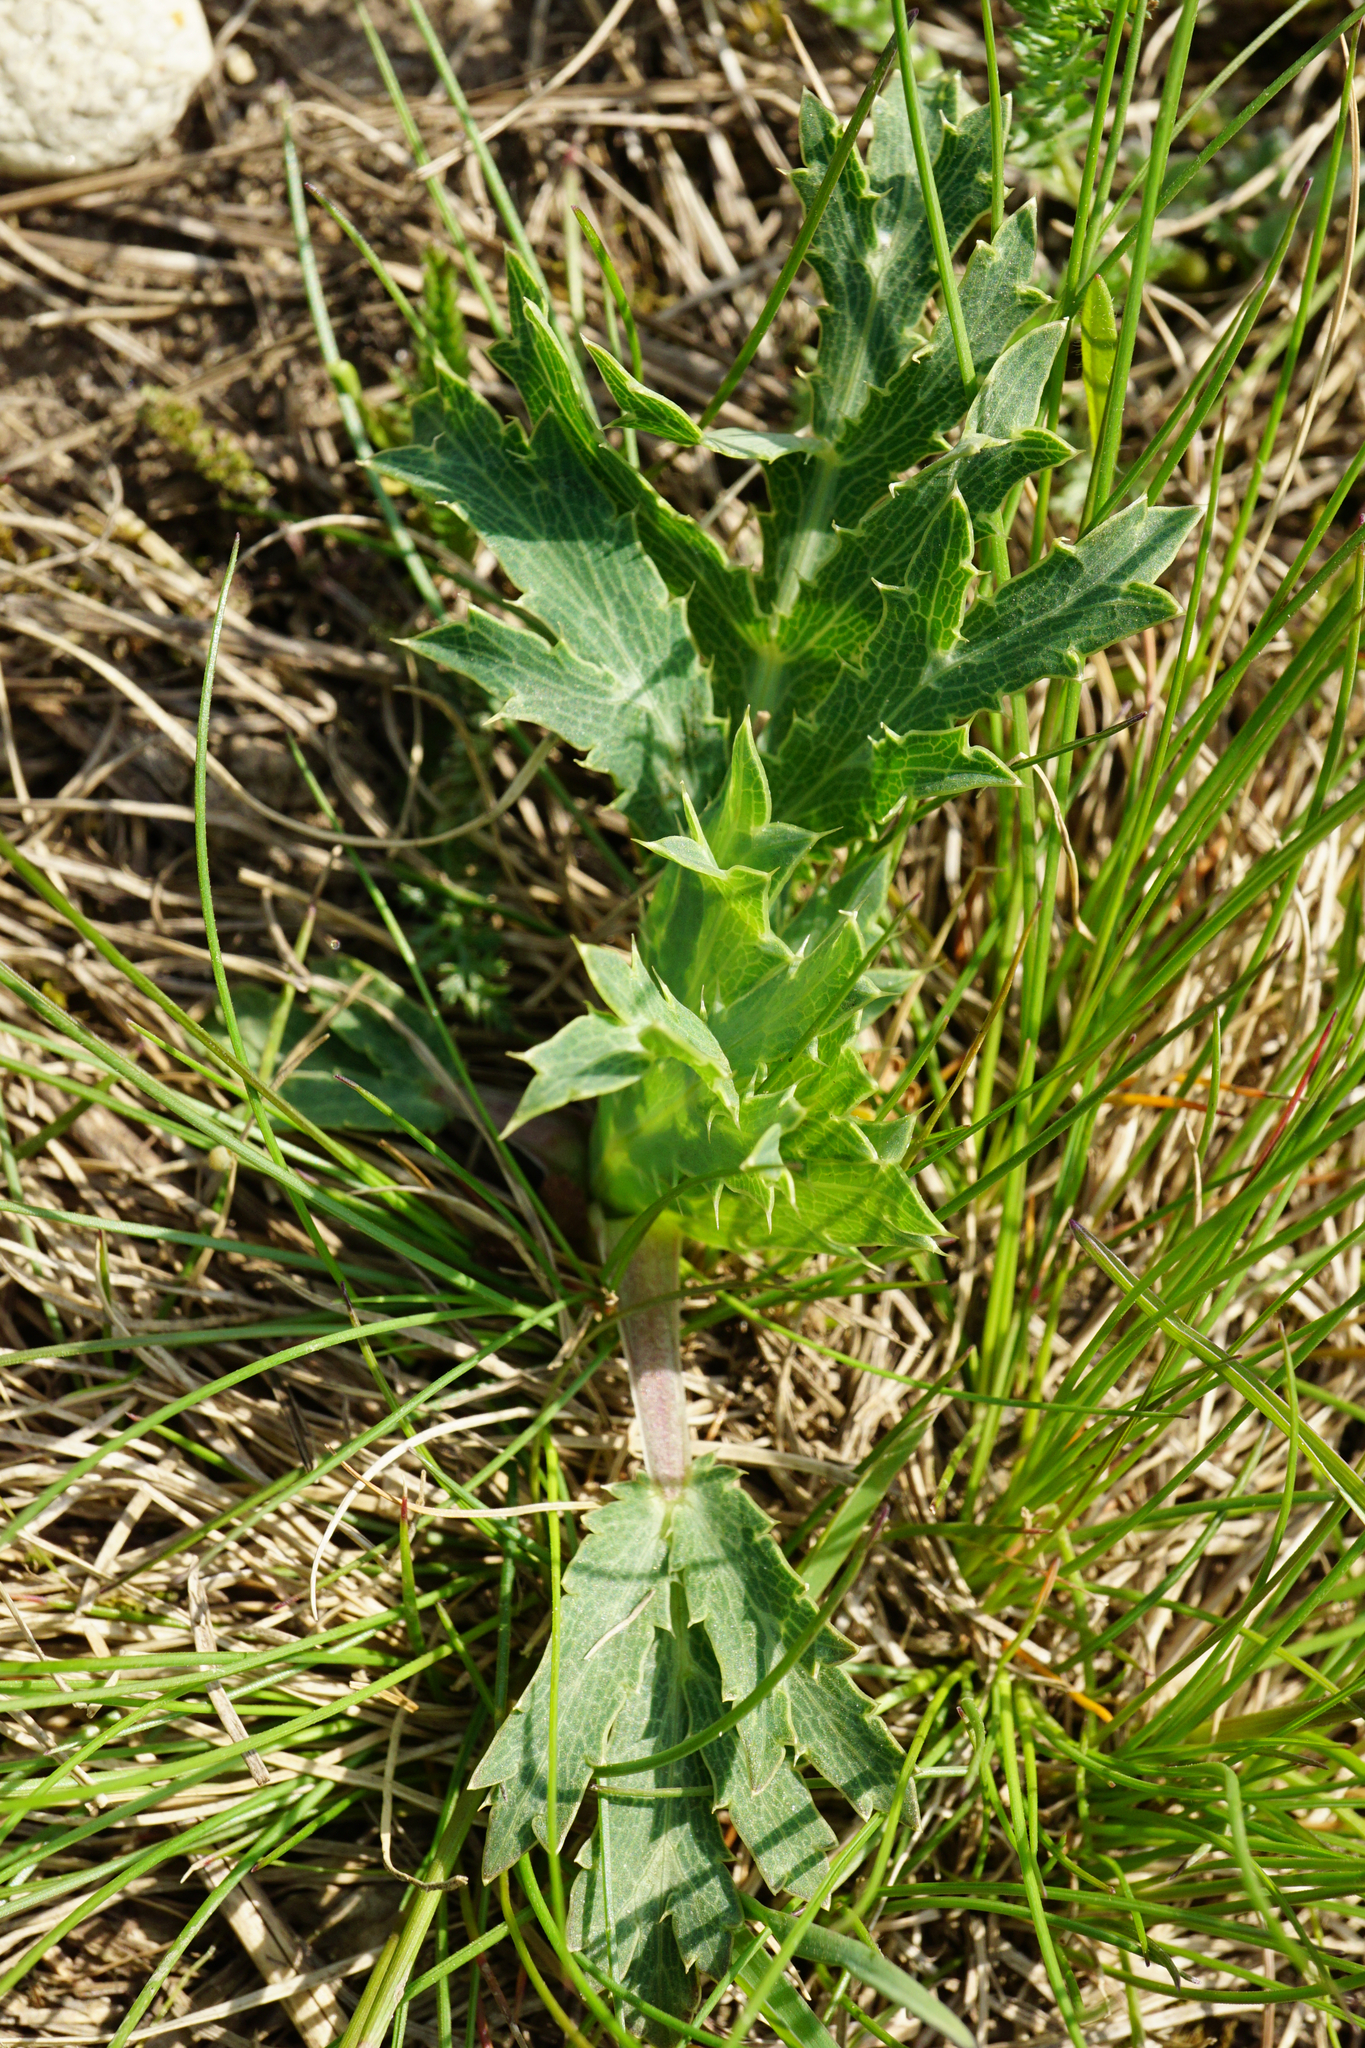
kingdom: Plantae
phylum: Tracheophyta
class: Magnoliopsida
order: Apiales
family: Apiaceae
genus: Eryngium
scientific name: Eryngium campestre
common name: Field eryngo
